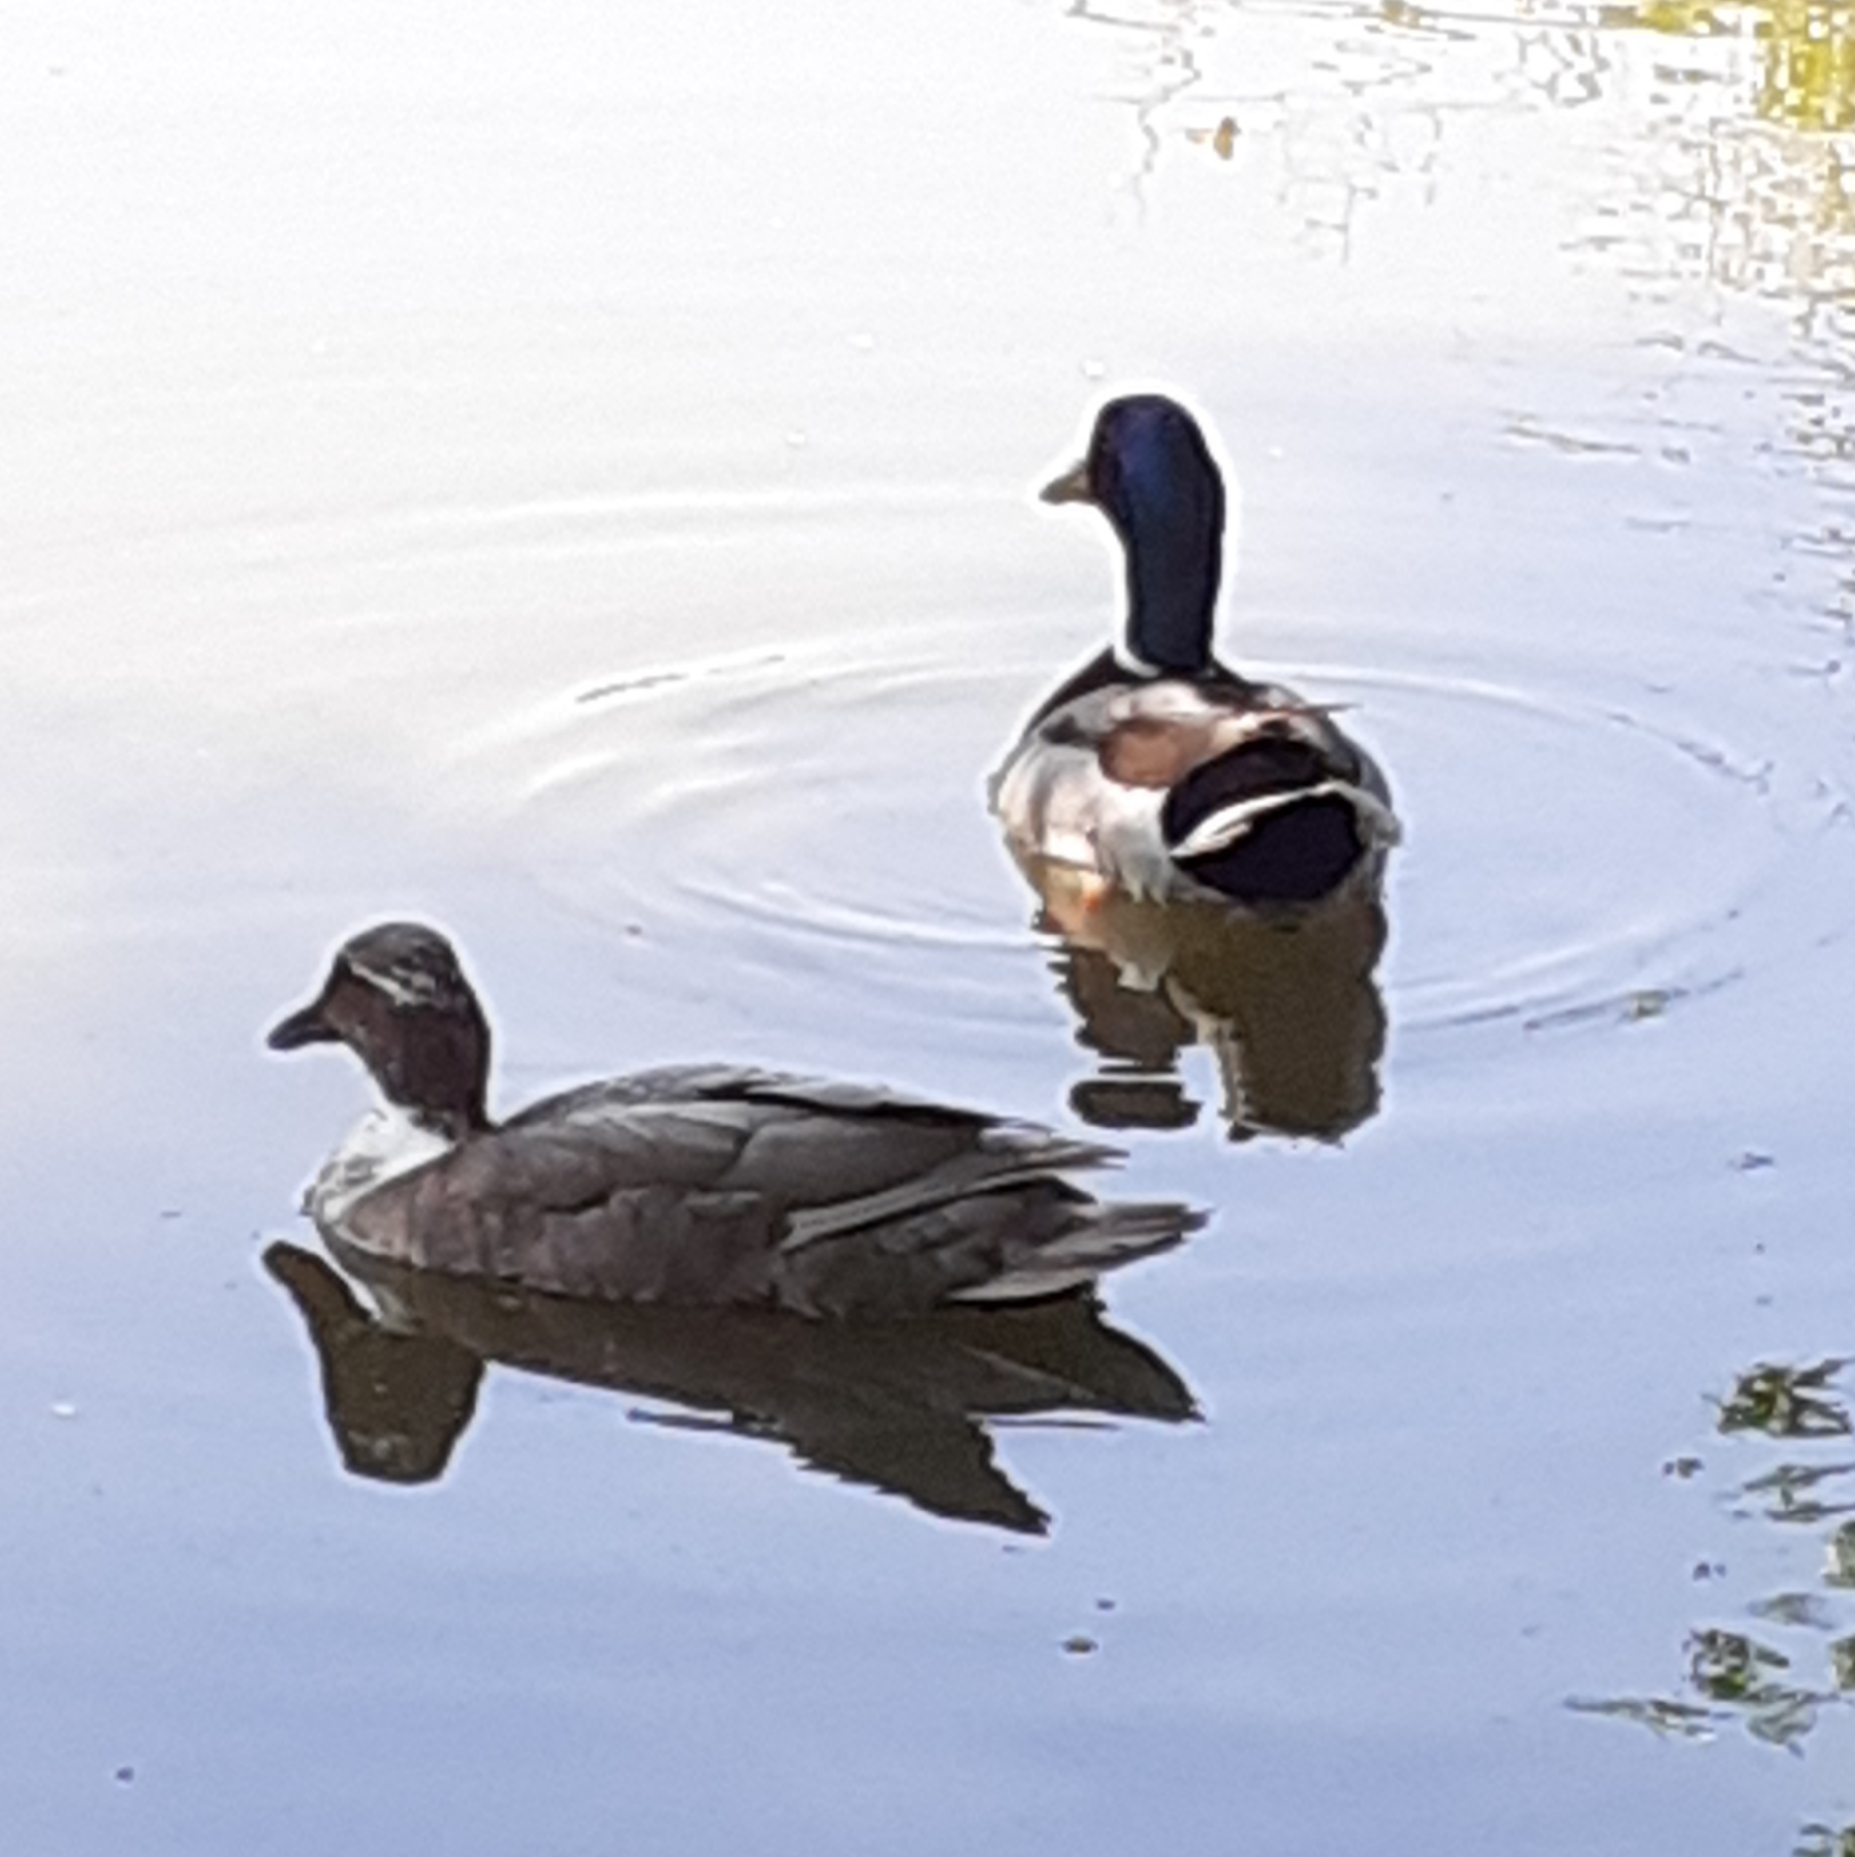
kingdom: Animalia
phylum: Chordata
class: Aves
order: Anseriformes
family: Anatidae
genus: Anas
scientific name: Anas platyrhynchos
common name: Mallard
